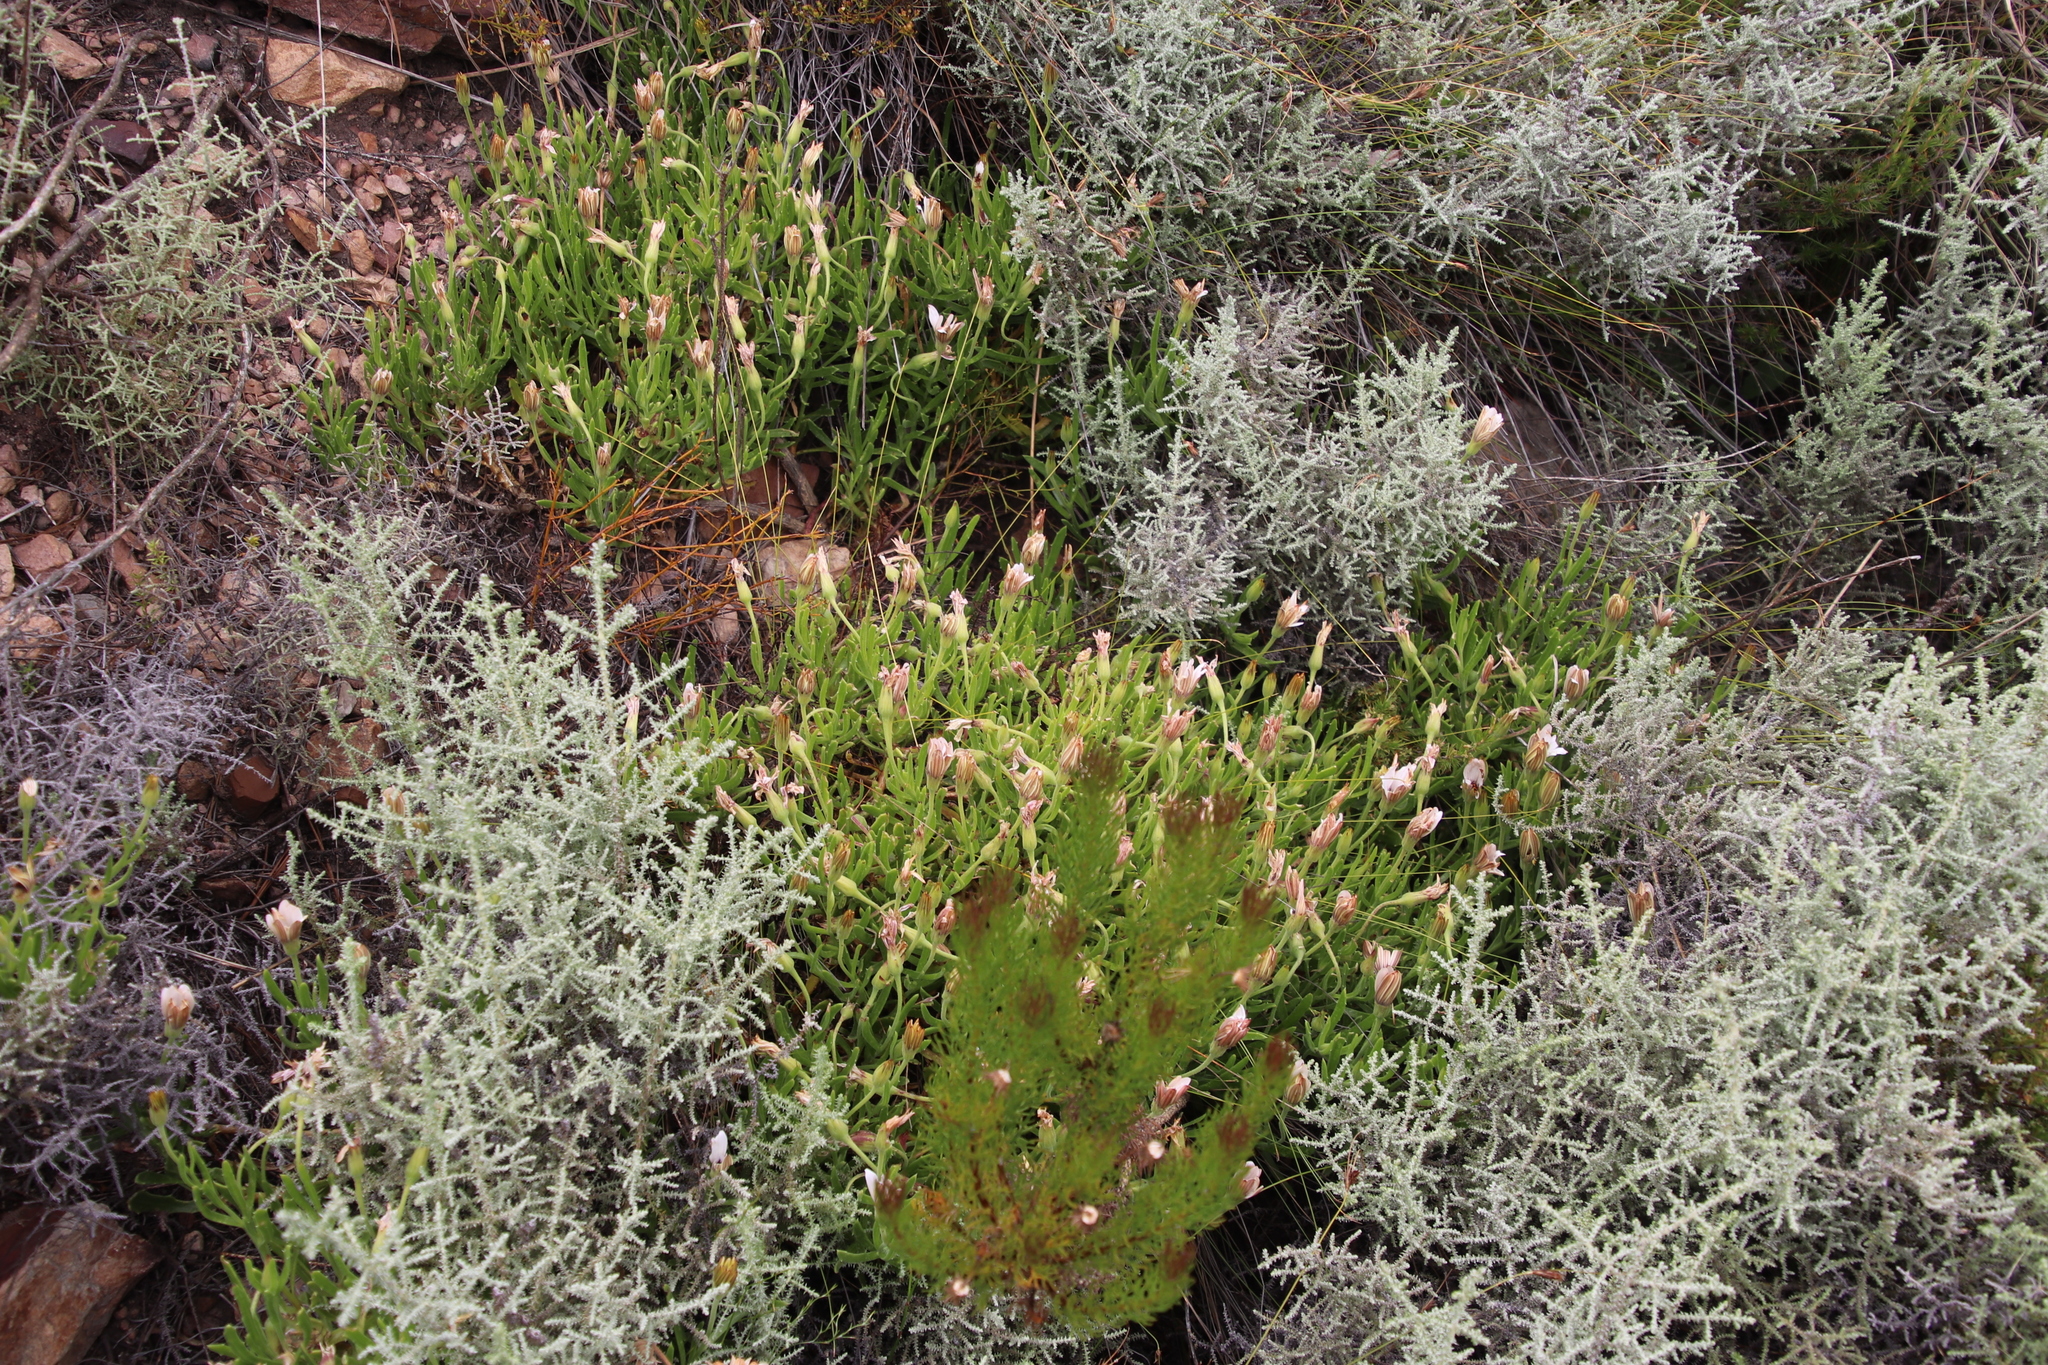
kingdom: Plantae
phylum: Tracheophyta
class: Magnoliopsida
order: Asterales
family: Asteraceae
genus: Dimorphotheca
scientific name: Dimorphotheca acutifolia
